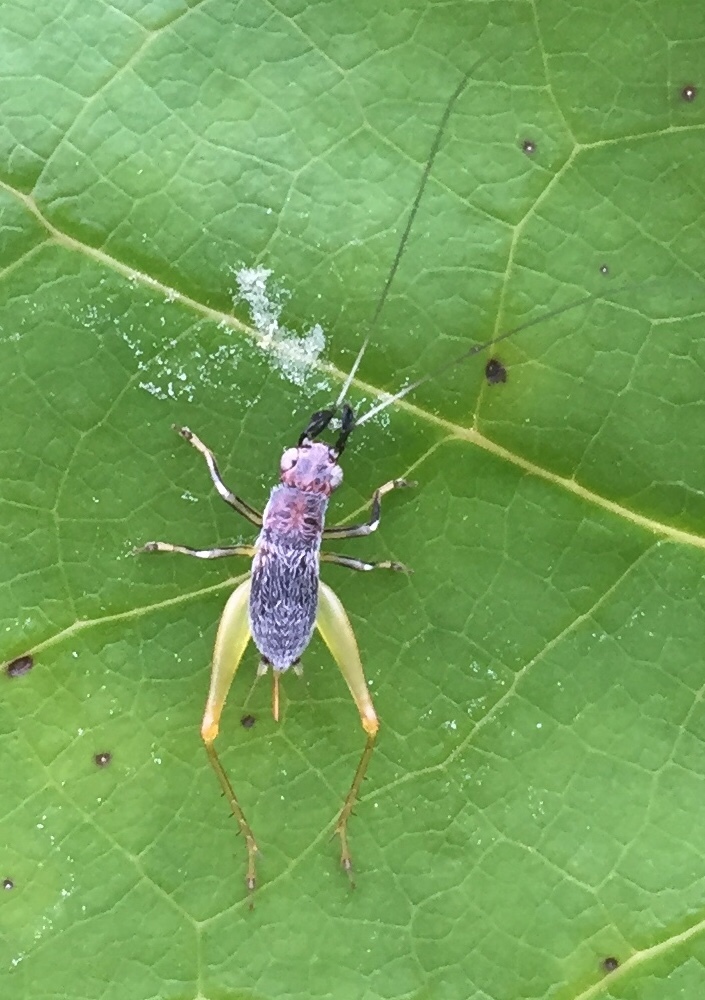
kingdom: Animalia
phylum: Arthropoda
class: Insecta
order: Orthoptera
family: Trigonidiidae
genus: Phyllopalpus
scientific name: Phyllopalpus pulchellus
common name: Handsome trig
